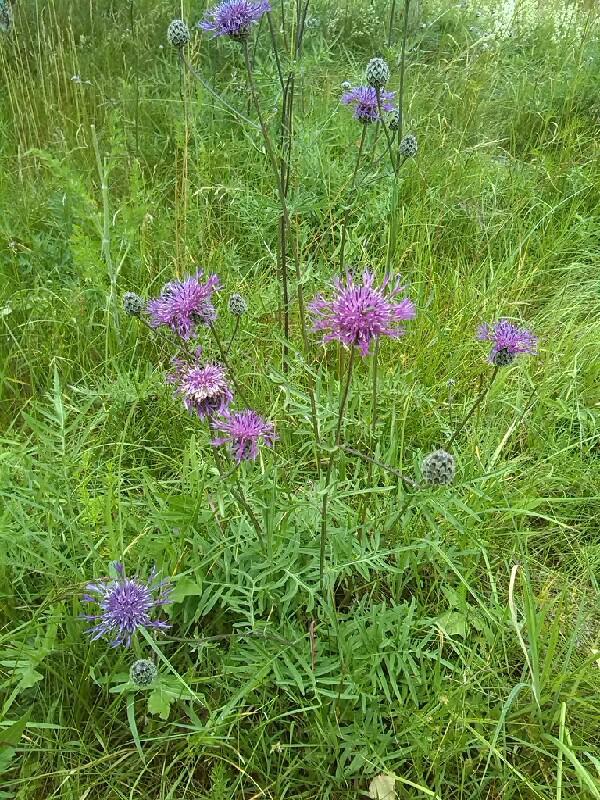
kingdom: Plantae
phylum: Tracheophyta
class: Magnoliopsida
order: Asterales
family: Asteraceae
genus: Centaurea
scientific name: Centaurea scabiosa
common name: Greater knapweed
